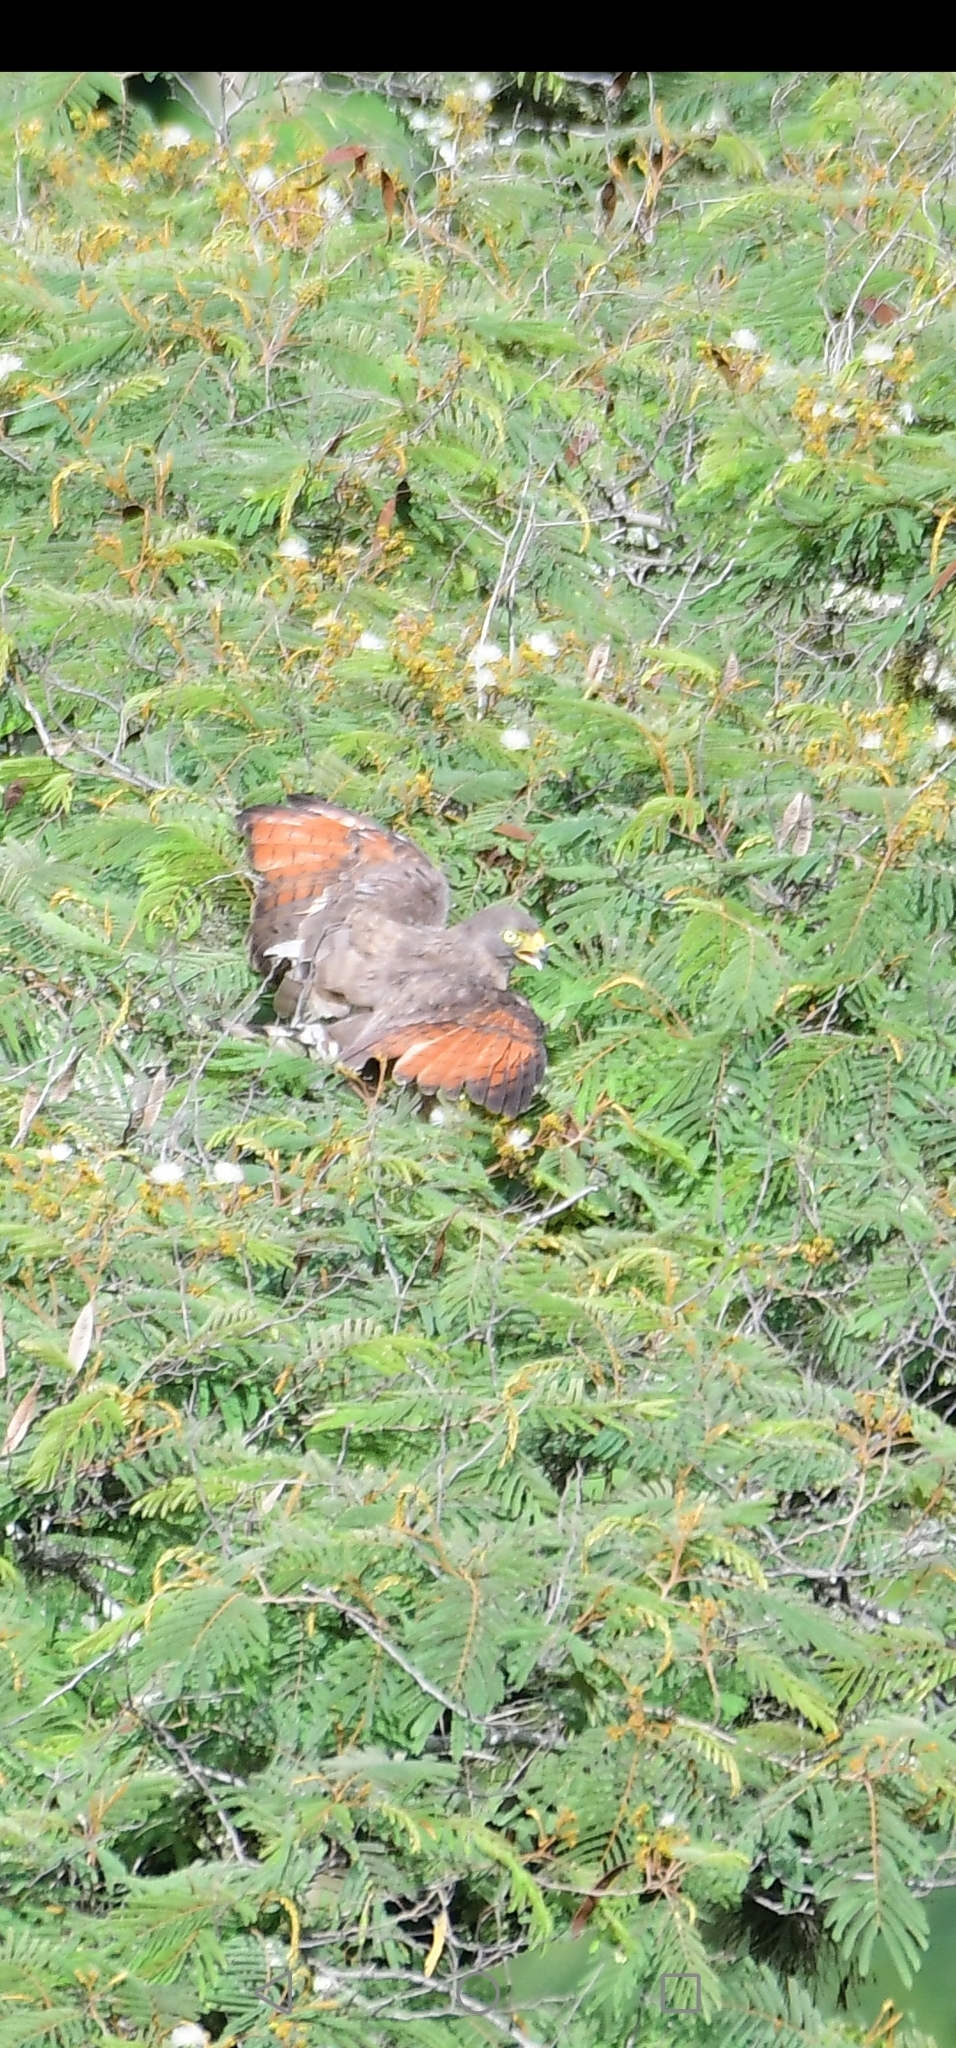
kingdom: Animalia
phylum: Chordata
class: Aves
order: Accipitriformes
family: Accipitridae
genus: Rupornis
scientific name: Rupornis magnirostris
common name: Roadside hawk
